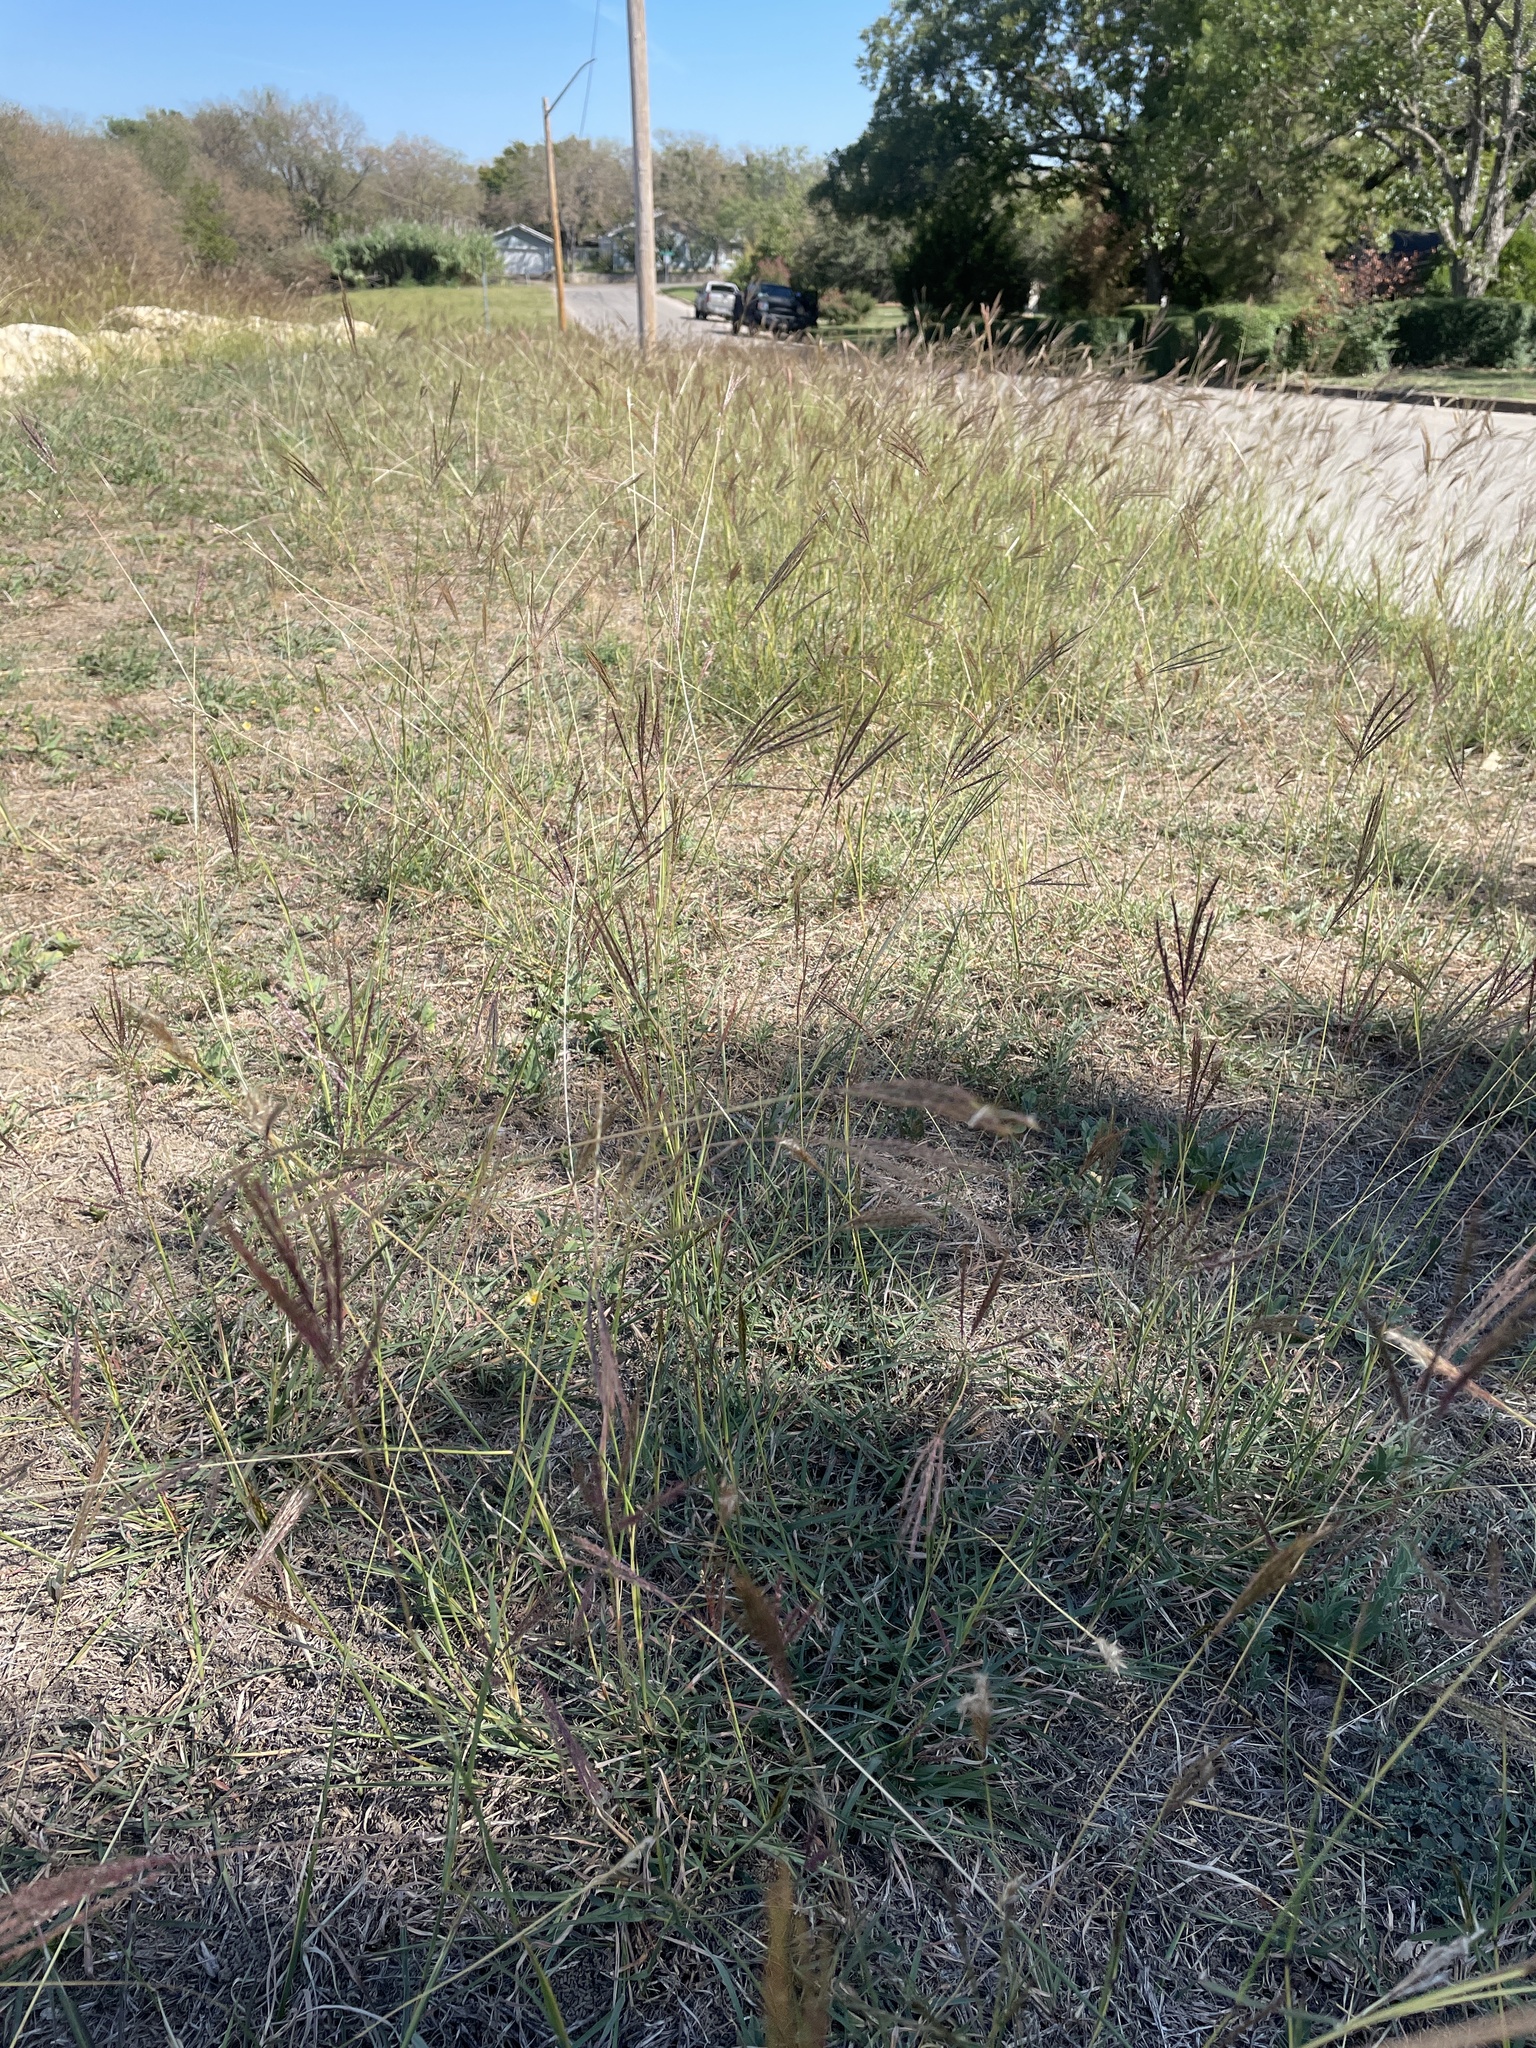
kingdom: Plantae
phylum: Tracheophyta
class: Liliopsida
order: Poales
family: Poaceae
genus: Bothriochloa
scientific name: Bothriochloa ischaemum
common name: Yellow bluestem
